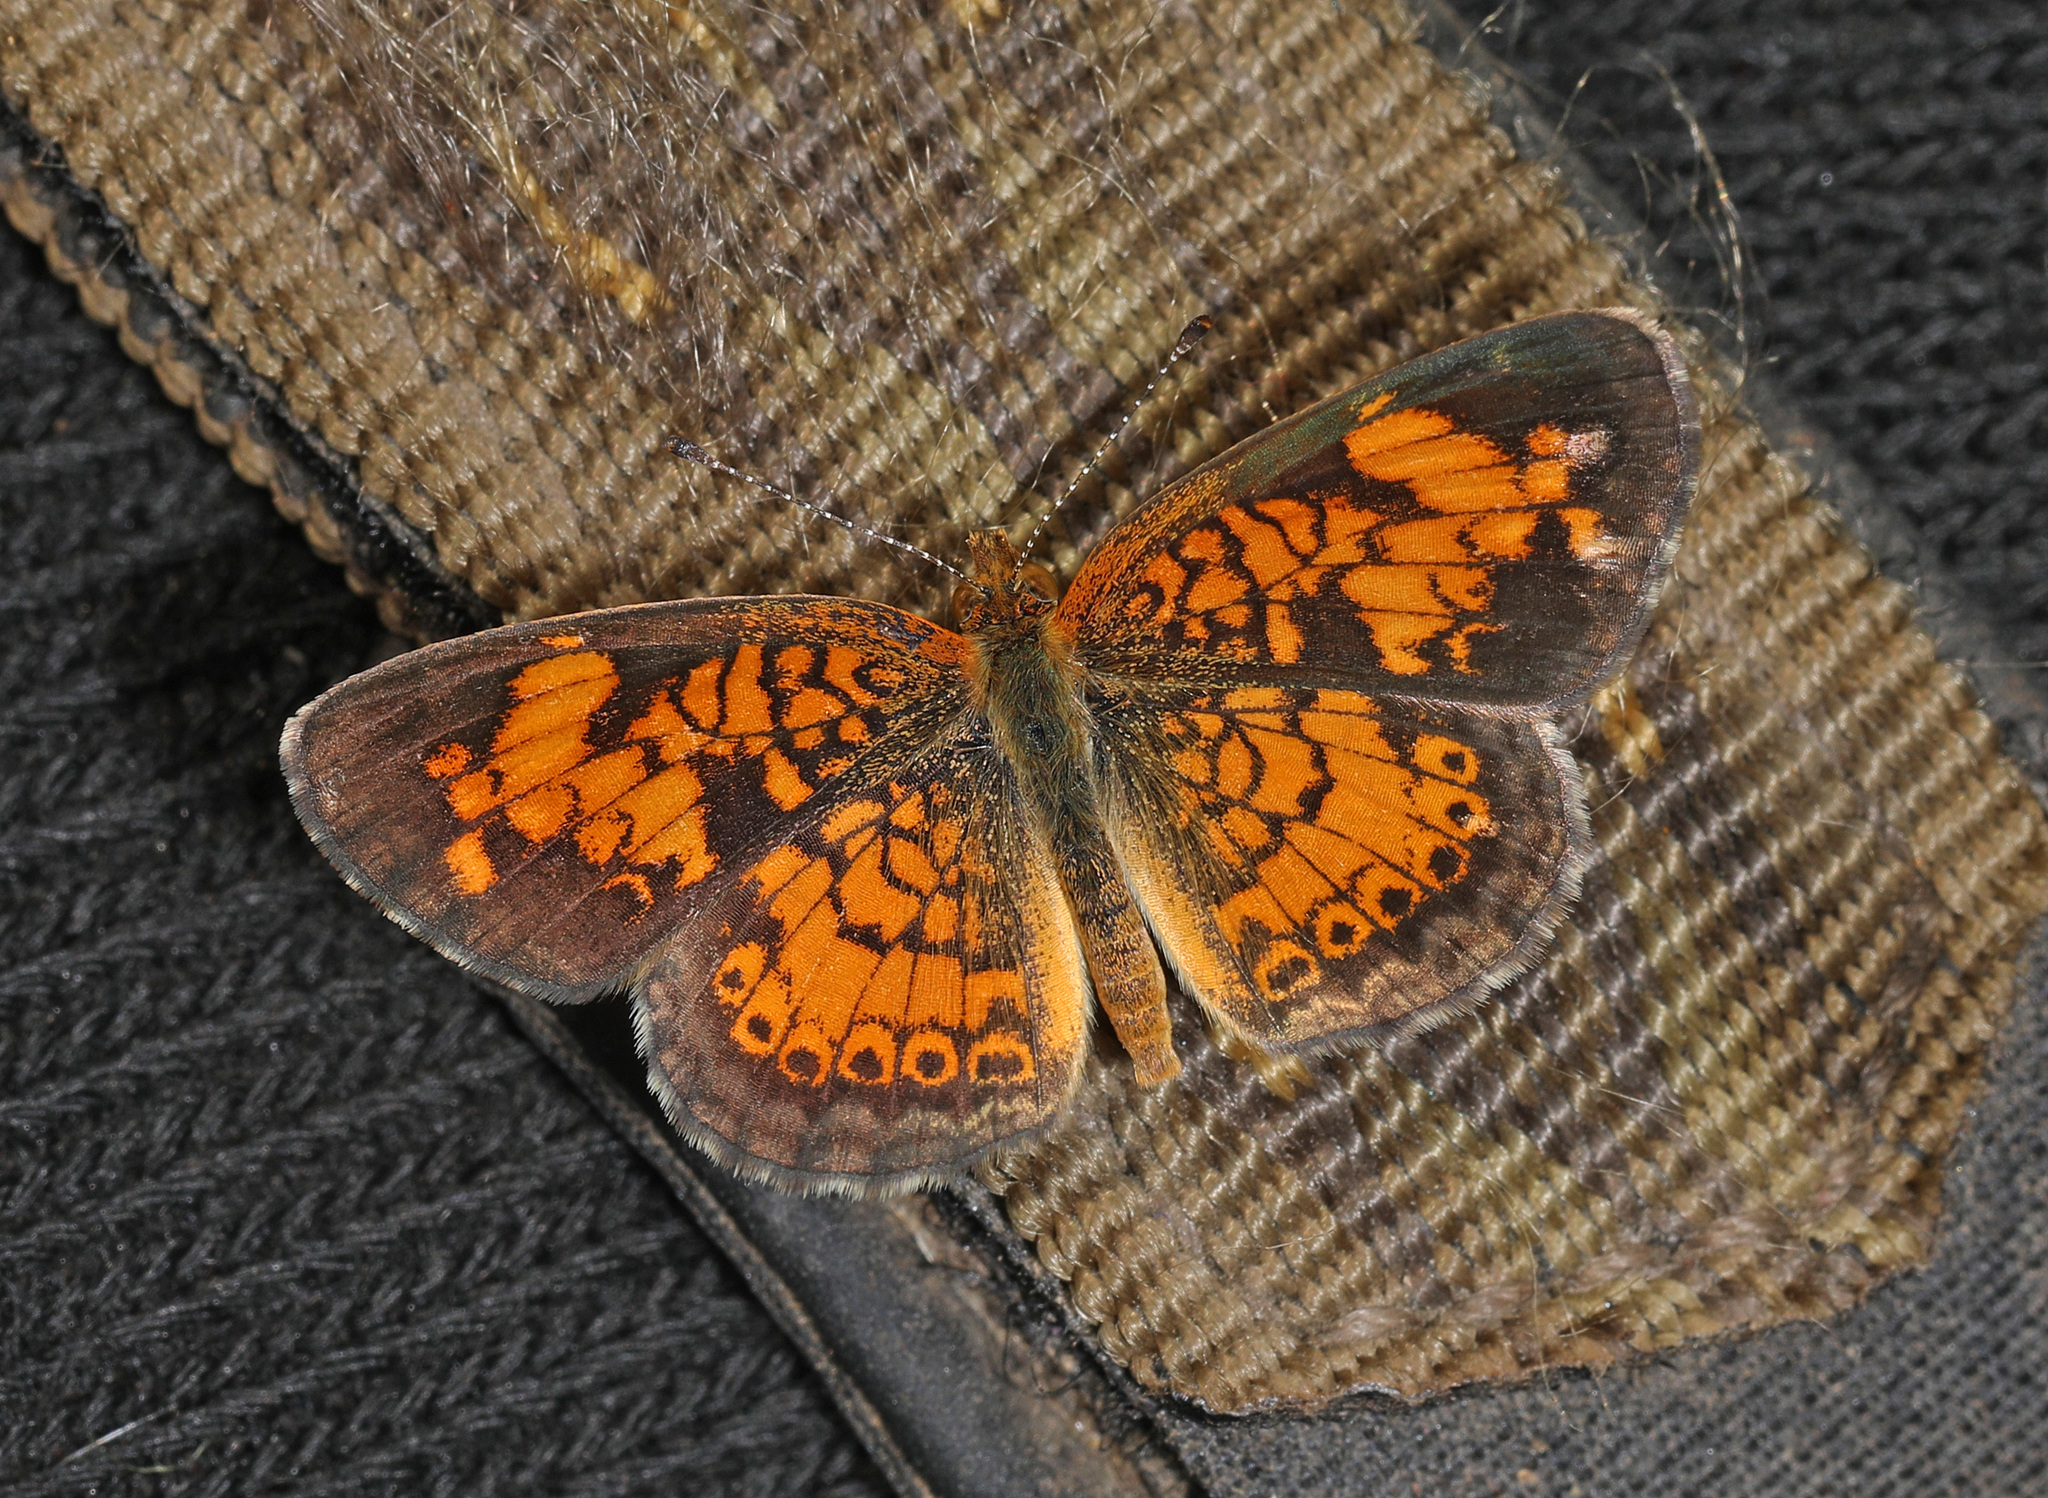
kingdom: Animalia
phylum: Arthropoda
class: Insecta
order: Lepidoptera
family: Nymphalidae
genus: Phyciodes
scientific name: Phyciodes tharos
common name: Pearl crescent
